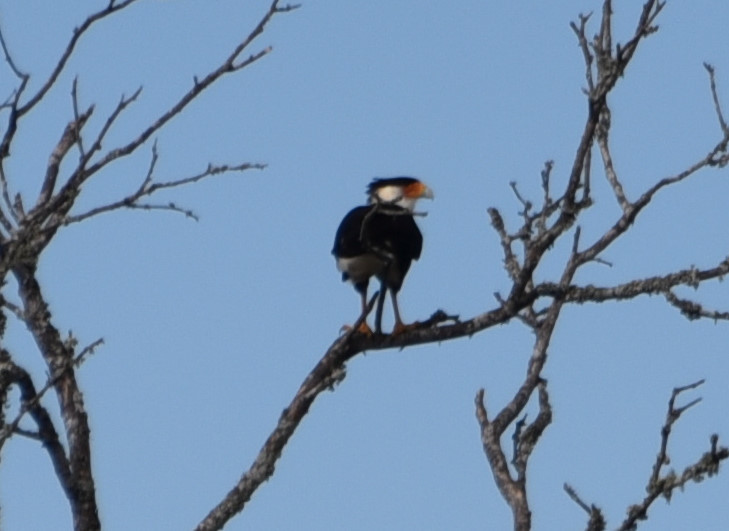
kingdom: Animalia
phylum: Chordata
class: Aves
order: Falconiformes
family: Falconidae
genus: Caracara
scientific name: Caracara plancus
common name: Southern caracara
